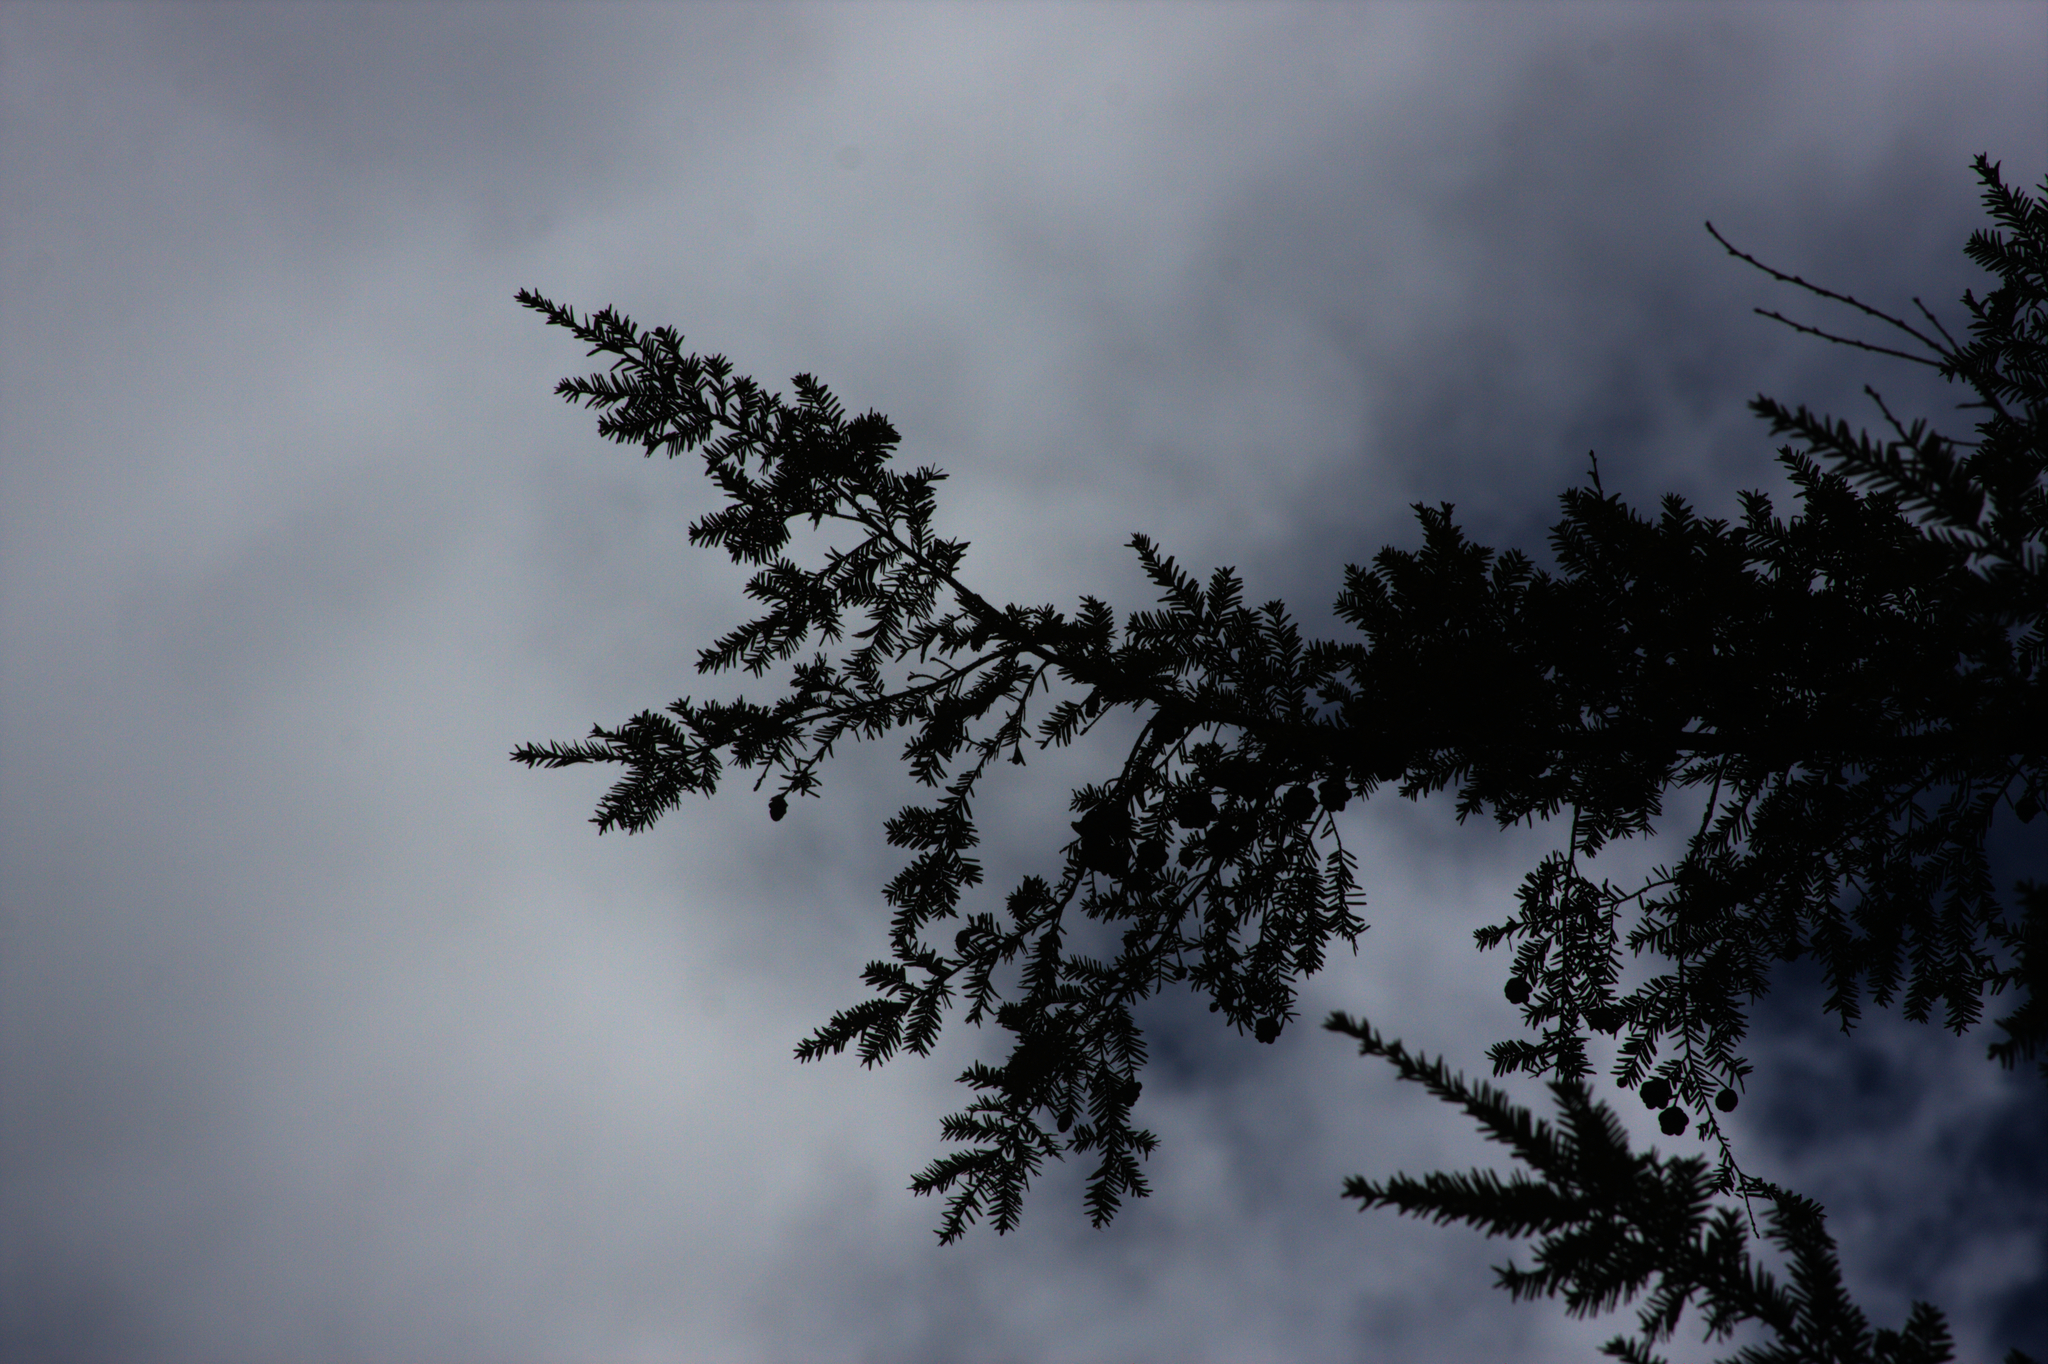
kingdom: Plantae
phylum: Tracheophyta
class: Pinopsida
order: Pinales
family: Pinaceae
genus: Tsuga
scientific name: Tsuga canadensis
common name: Eastern hemlock
